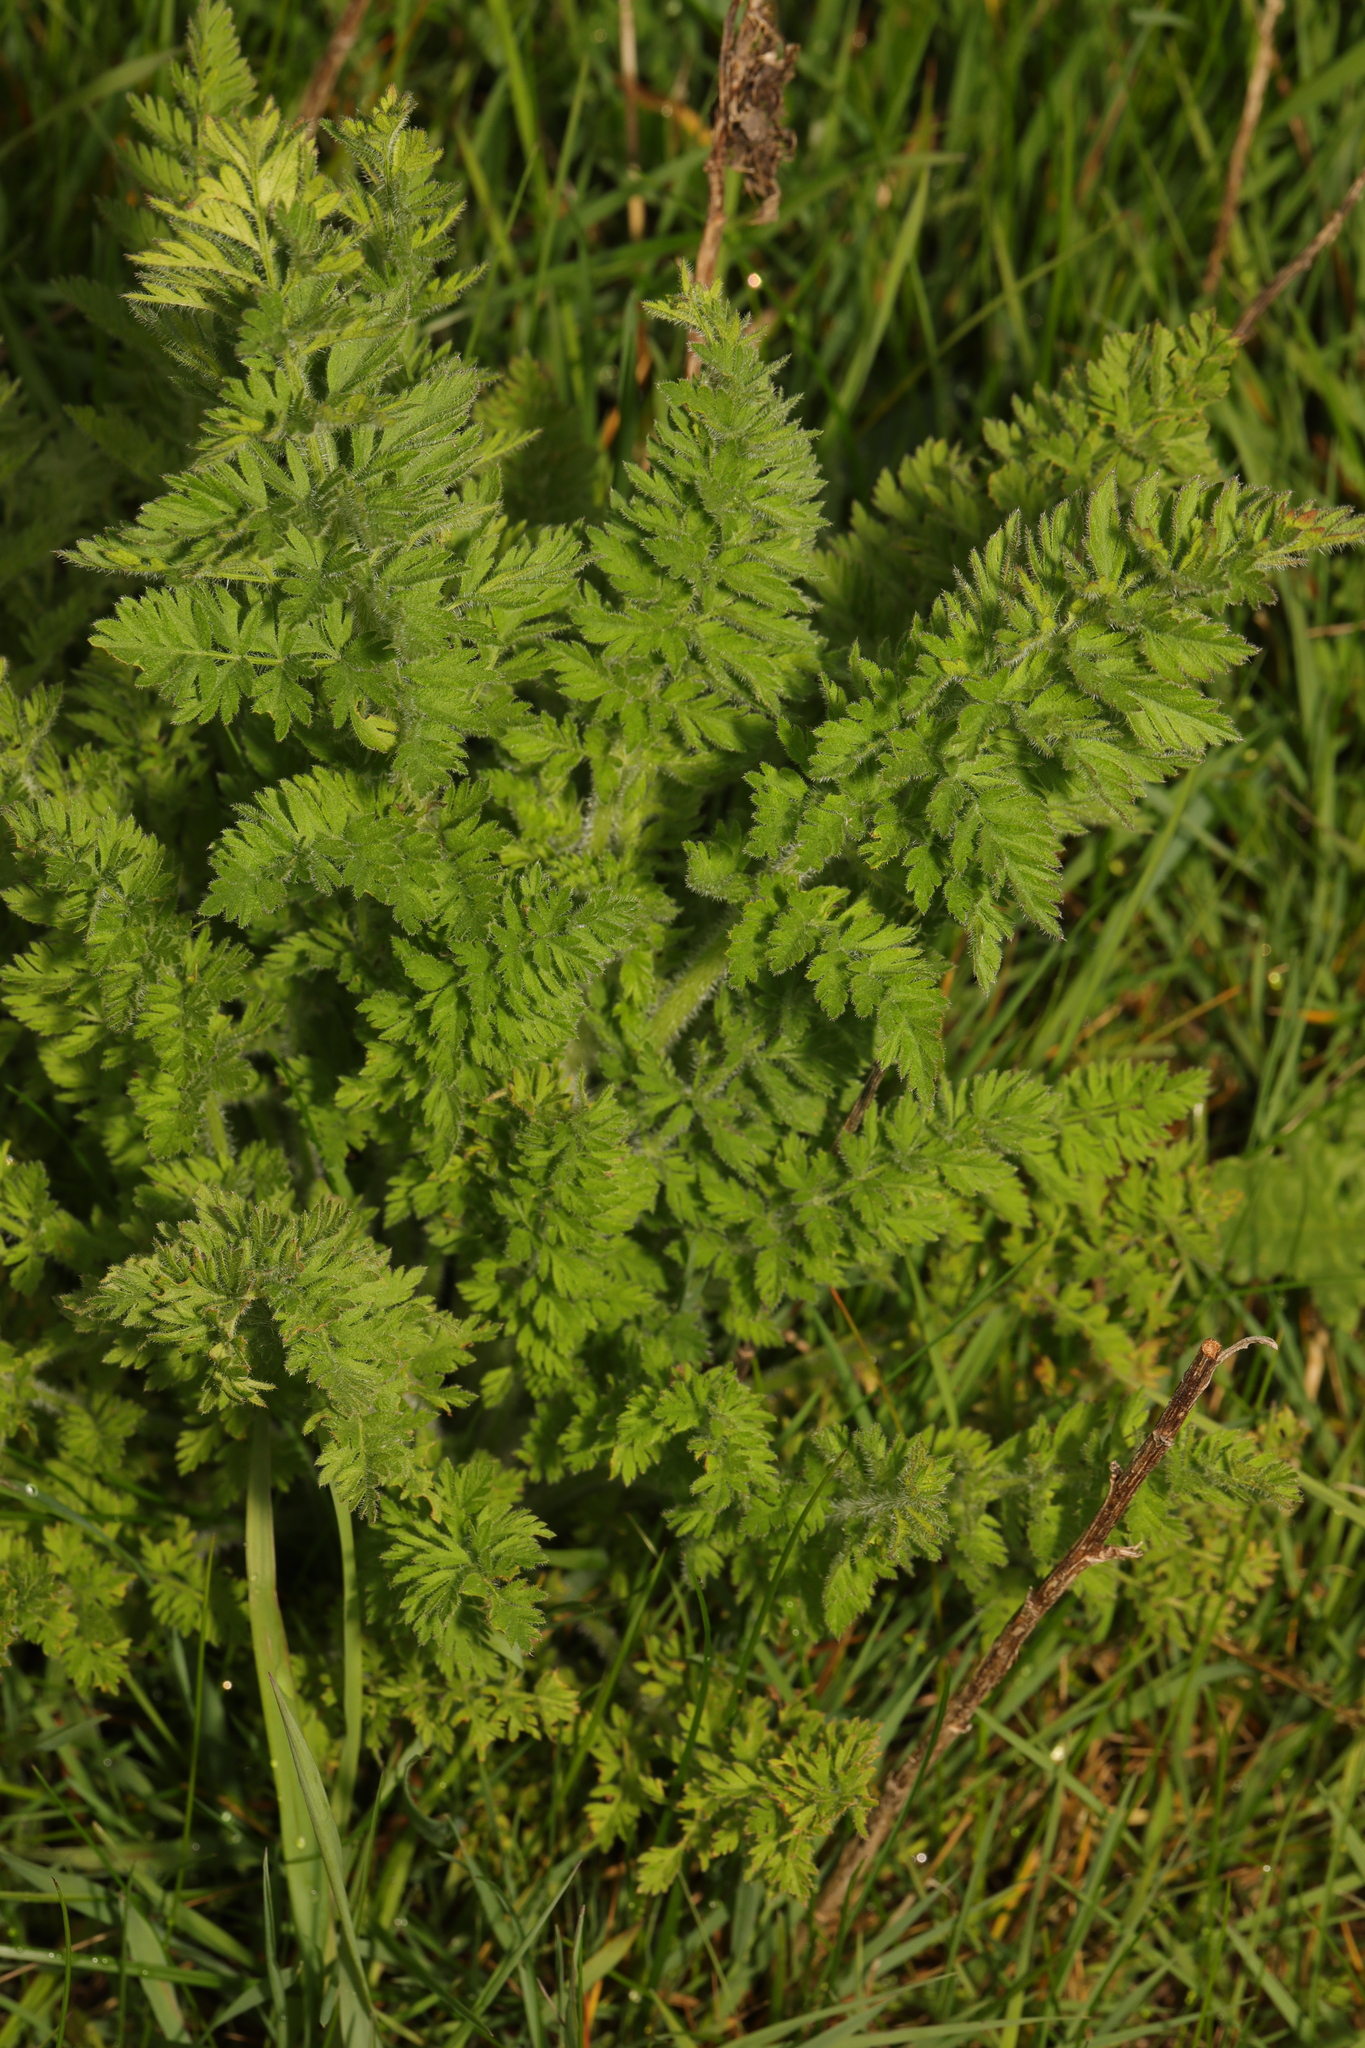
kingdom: Plantae
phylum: Tracheophyta
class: Magnoliopsida
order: Apiales
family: Apiaceae
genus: Daucus
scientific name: Daucus carota
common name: Wild carrot
